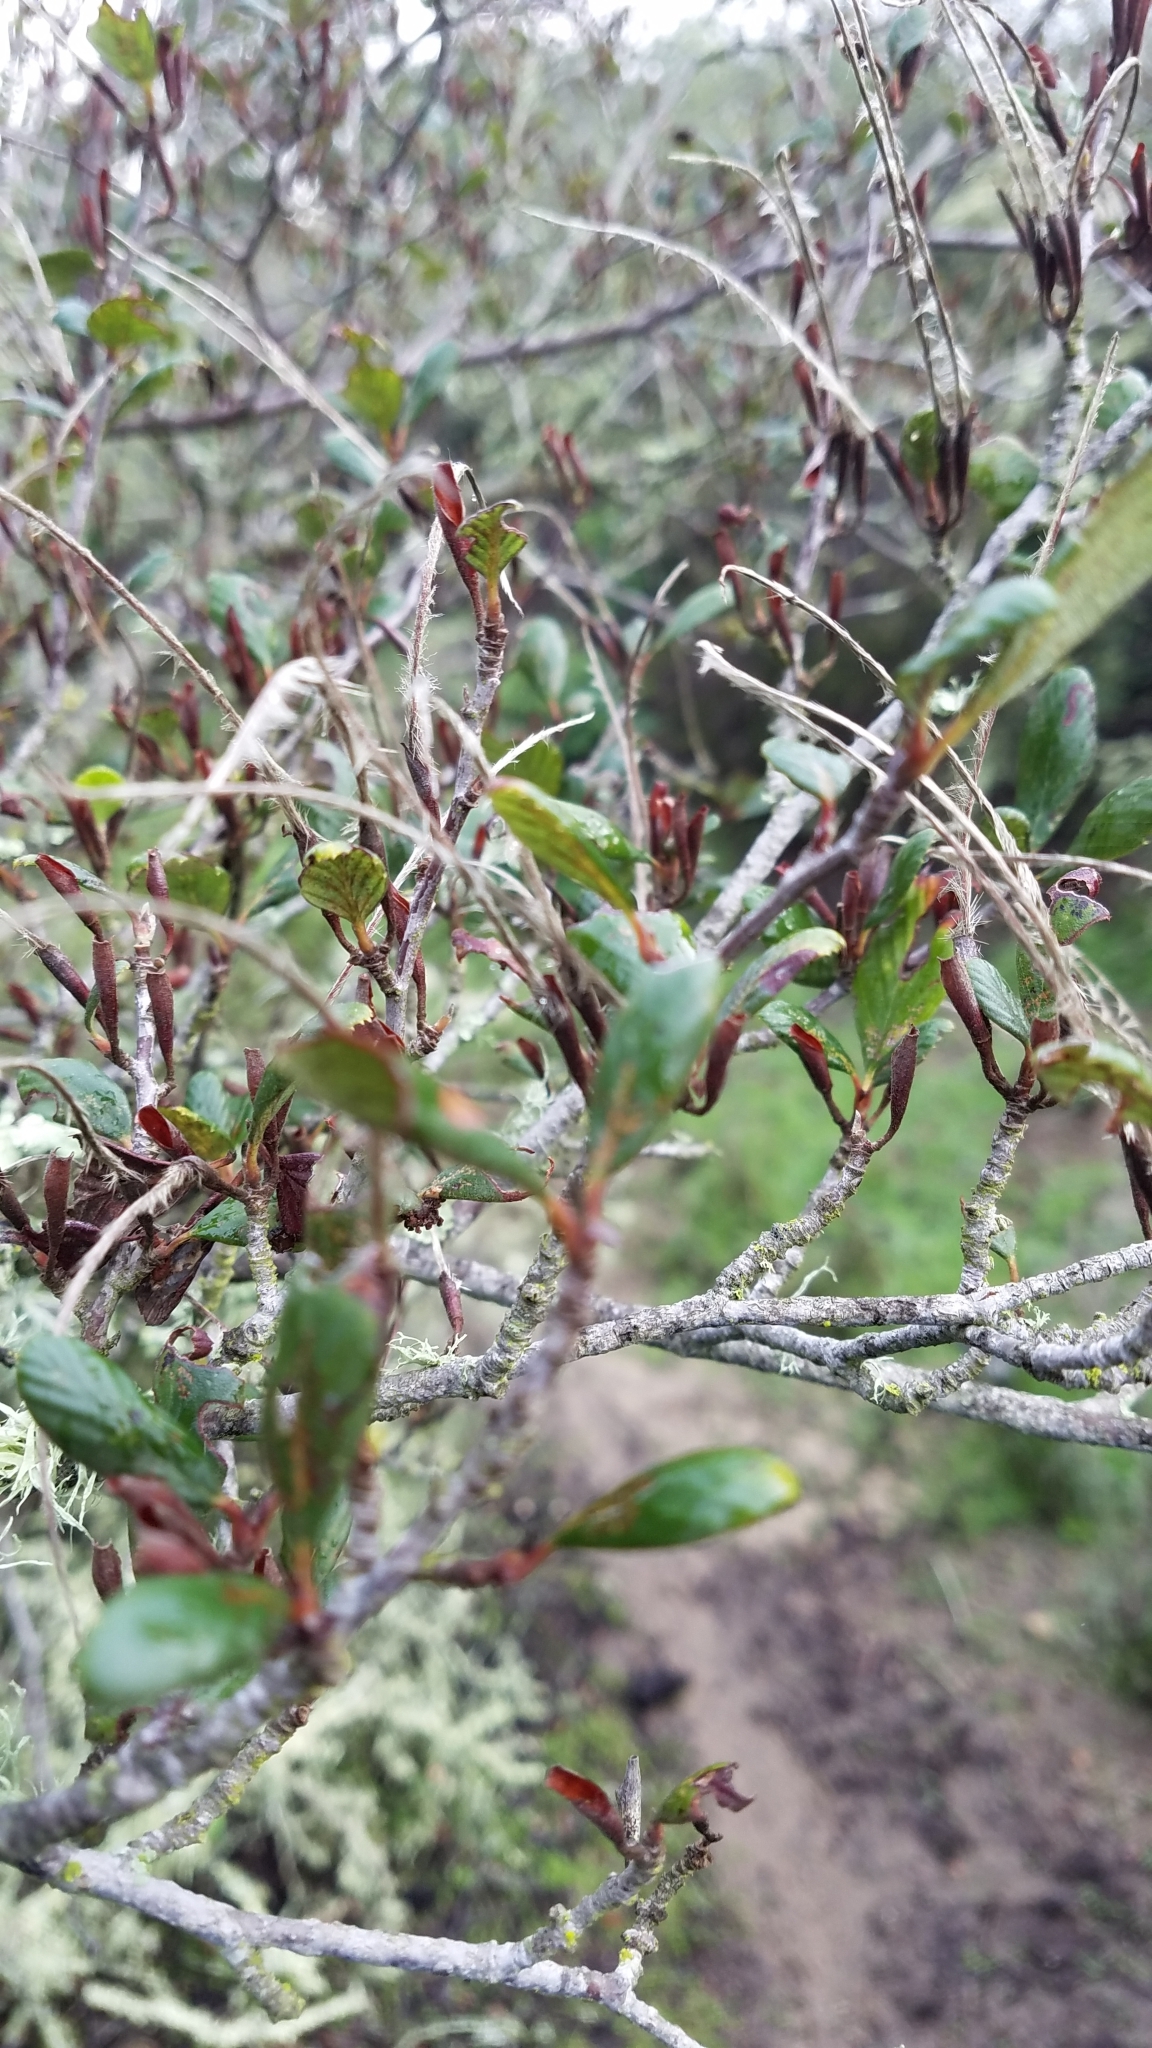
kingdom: Plantae
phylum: Tracheophyta
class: Magnoliopsida
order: Rosales
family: Rosaceae
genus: Cercocarpus
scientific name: Cercocarpus betuloides
